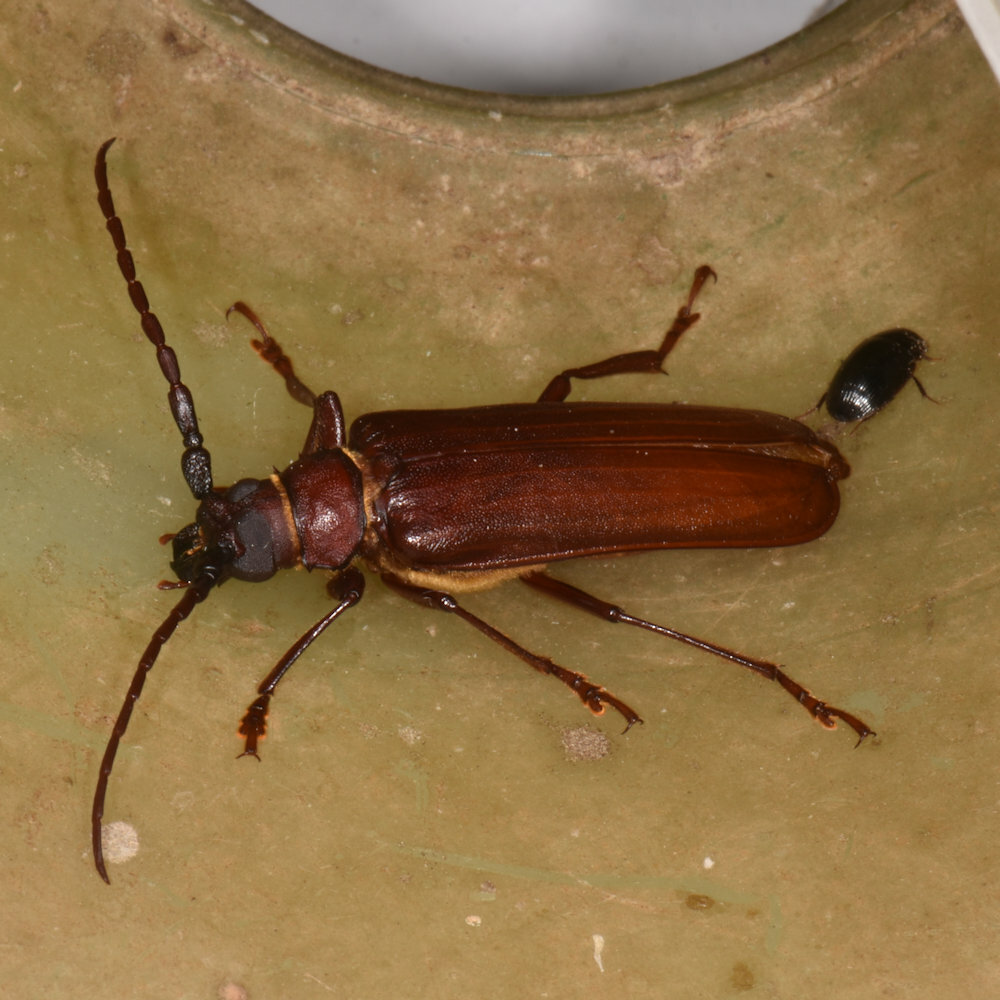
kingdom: Animalia
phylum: Arthropoda
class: Insecta
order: Coleoptera
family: Cerambycidae
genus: Orthosoma
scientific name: Orthosoma brunneum
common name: Brown prionid beetle
